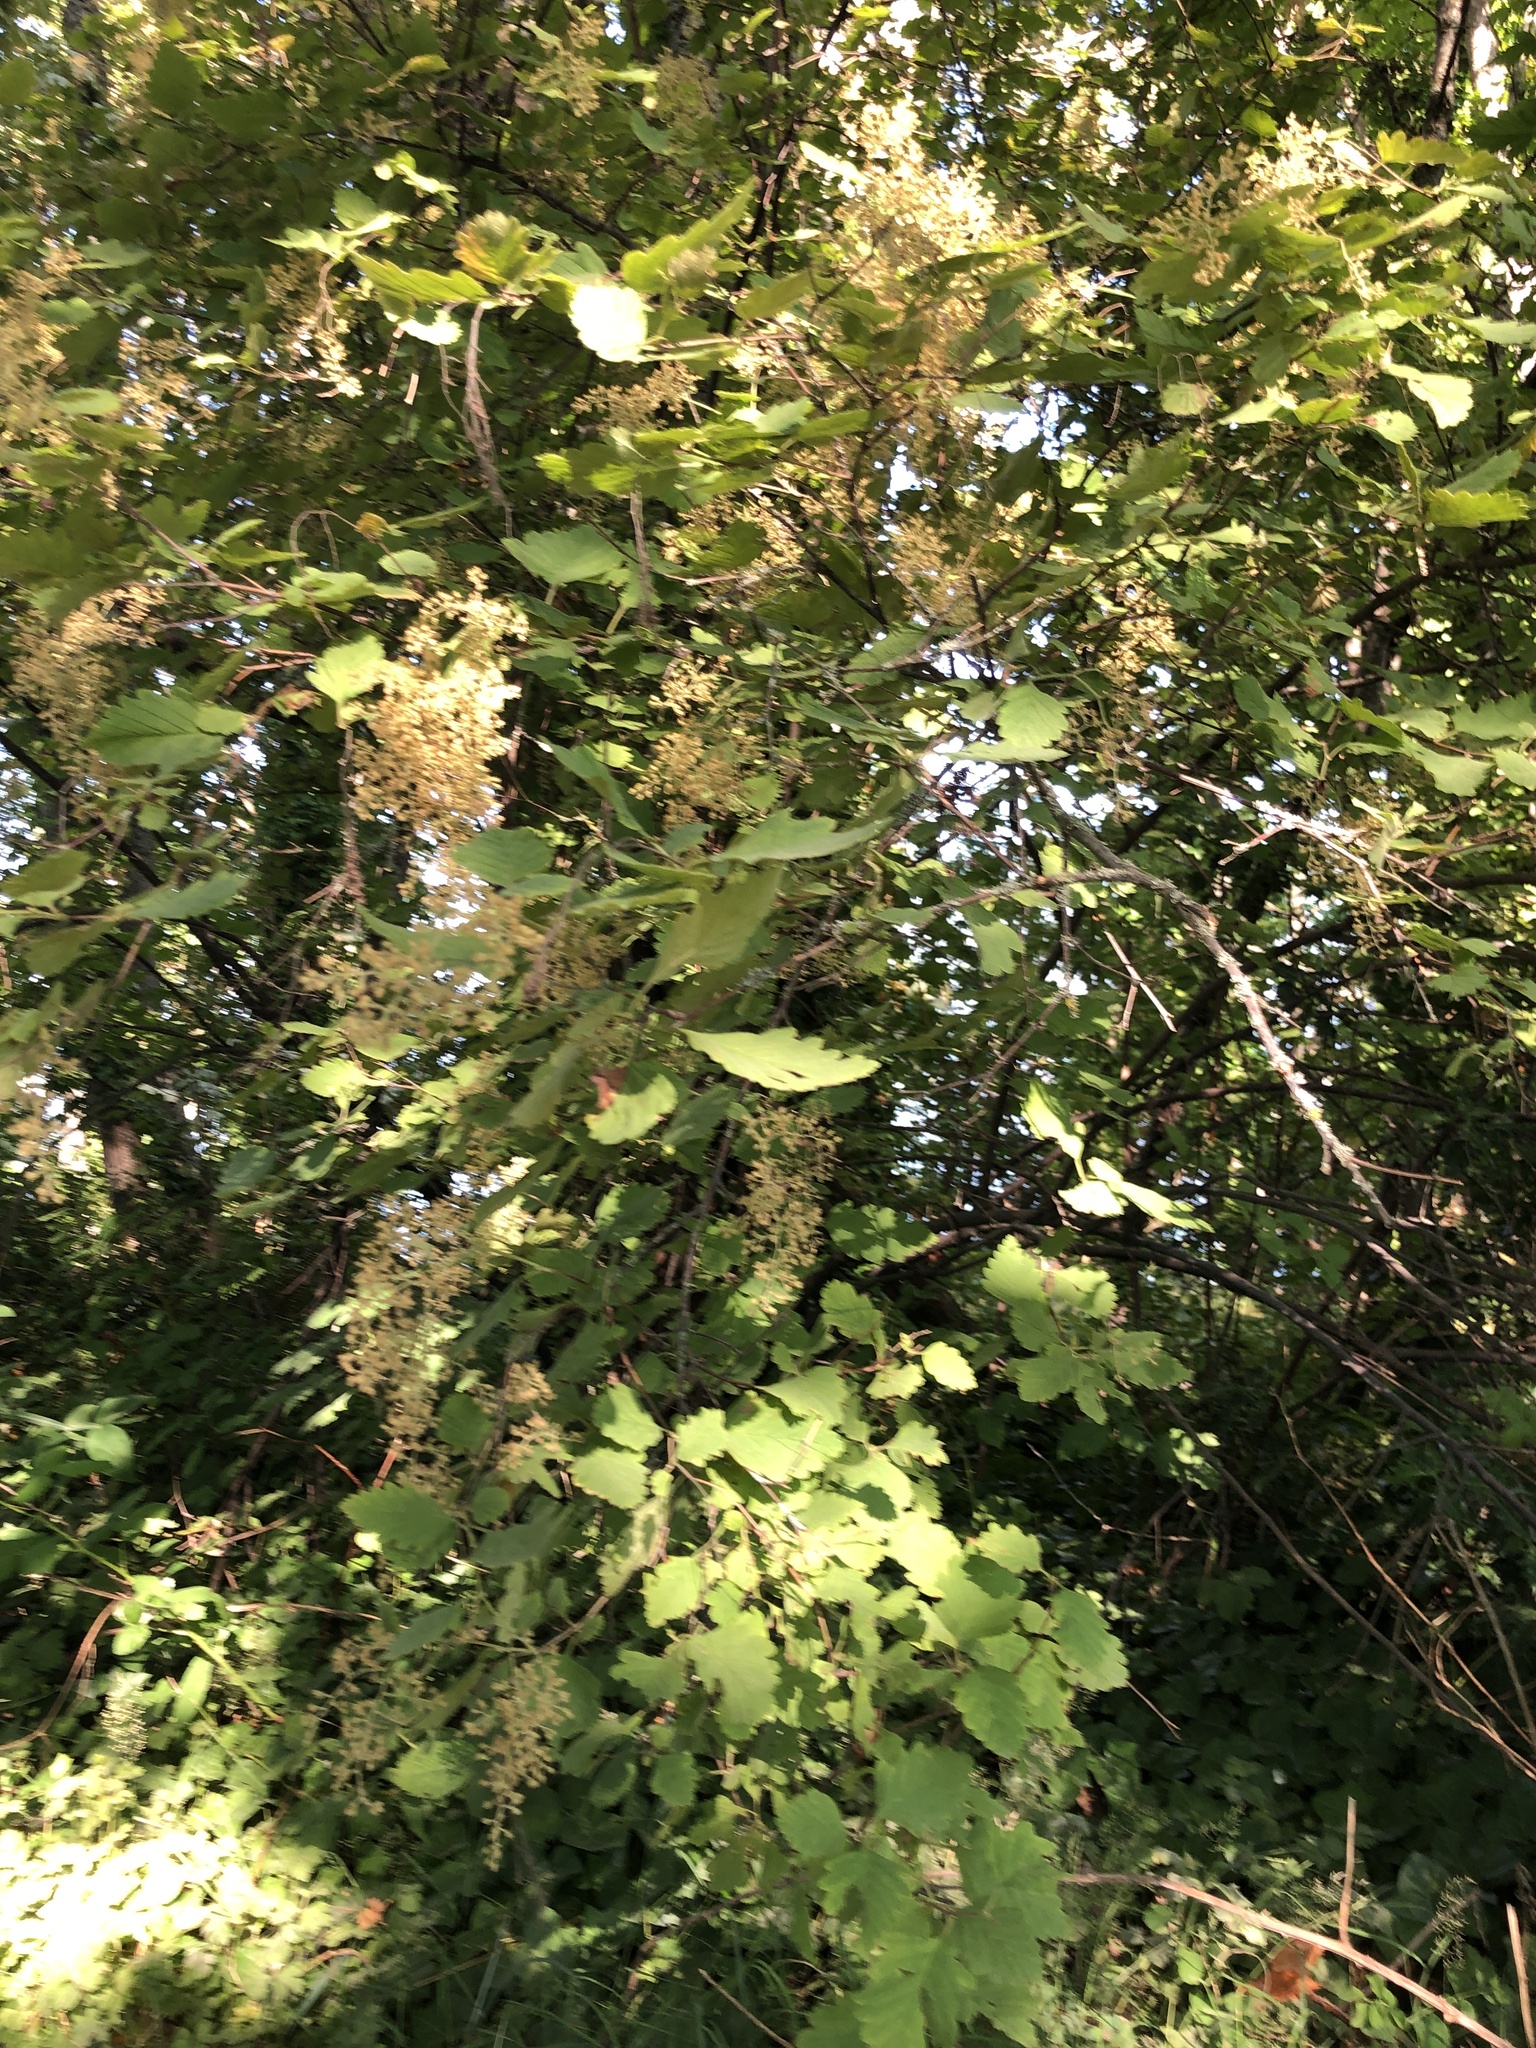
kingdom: Plantae
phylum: Tracheophyta
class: Magnoliopsida
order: Rosales
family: Rosaceae
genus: Holodiscus
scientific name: Holodiscus discolor
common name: Oceanspray
